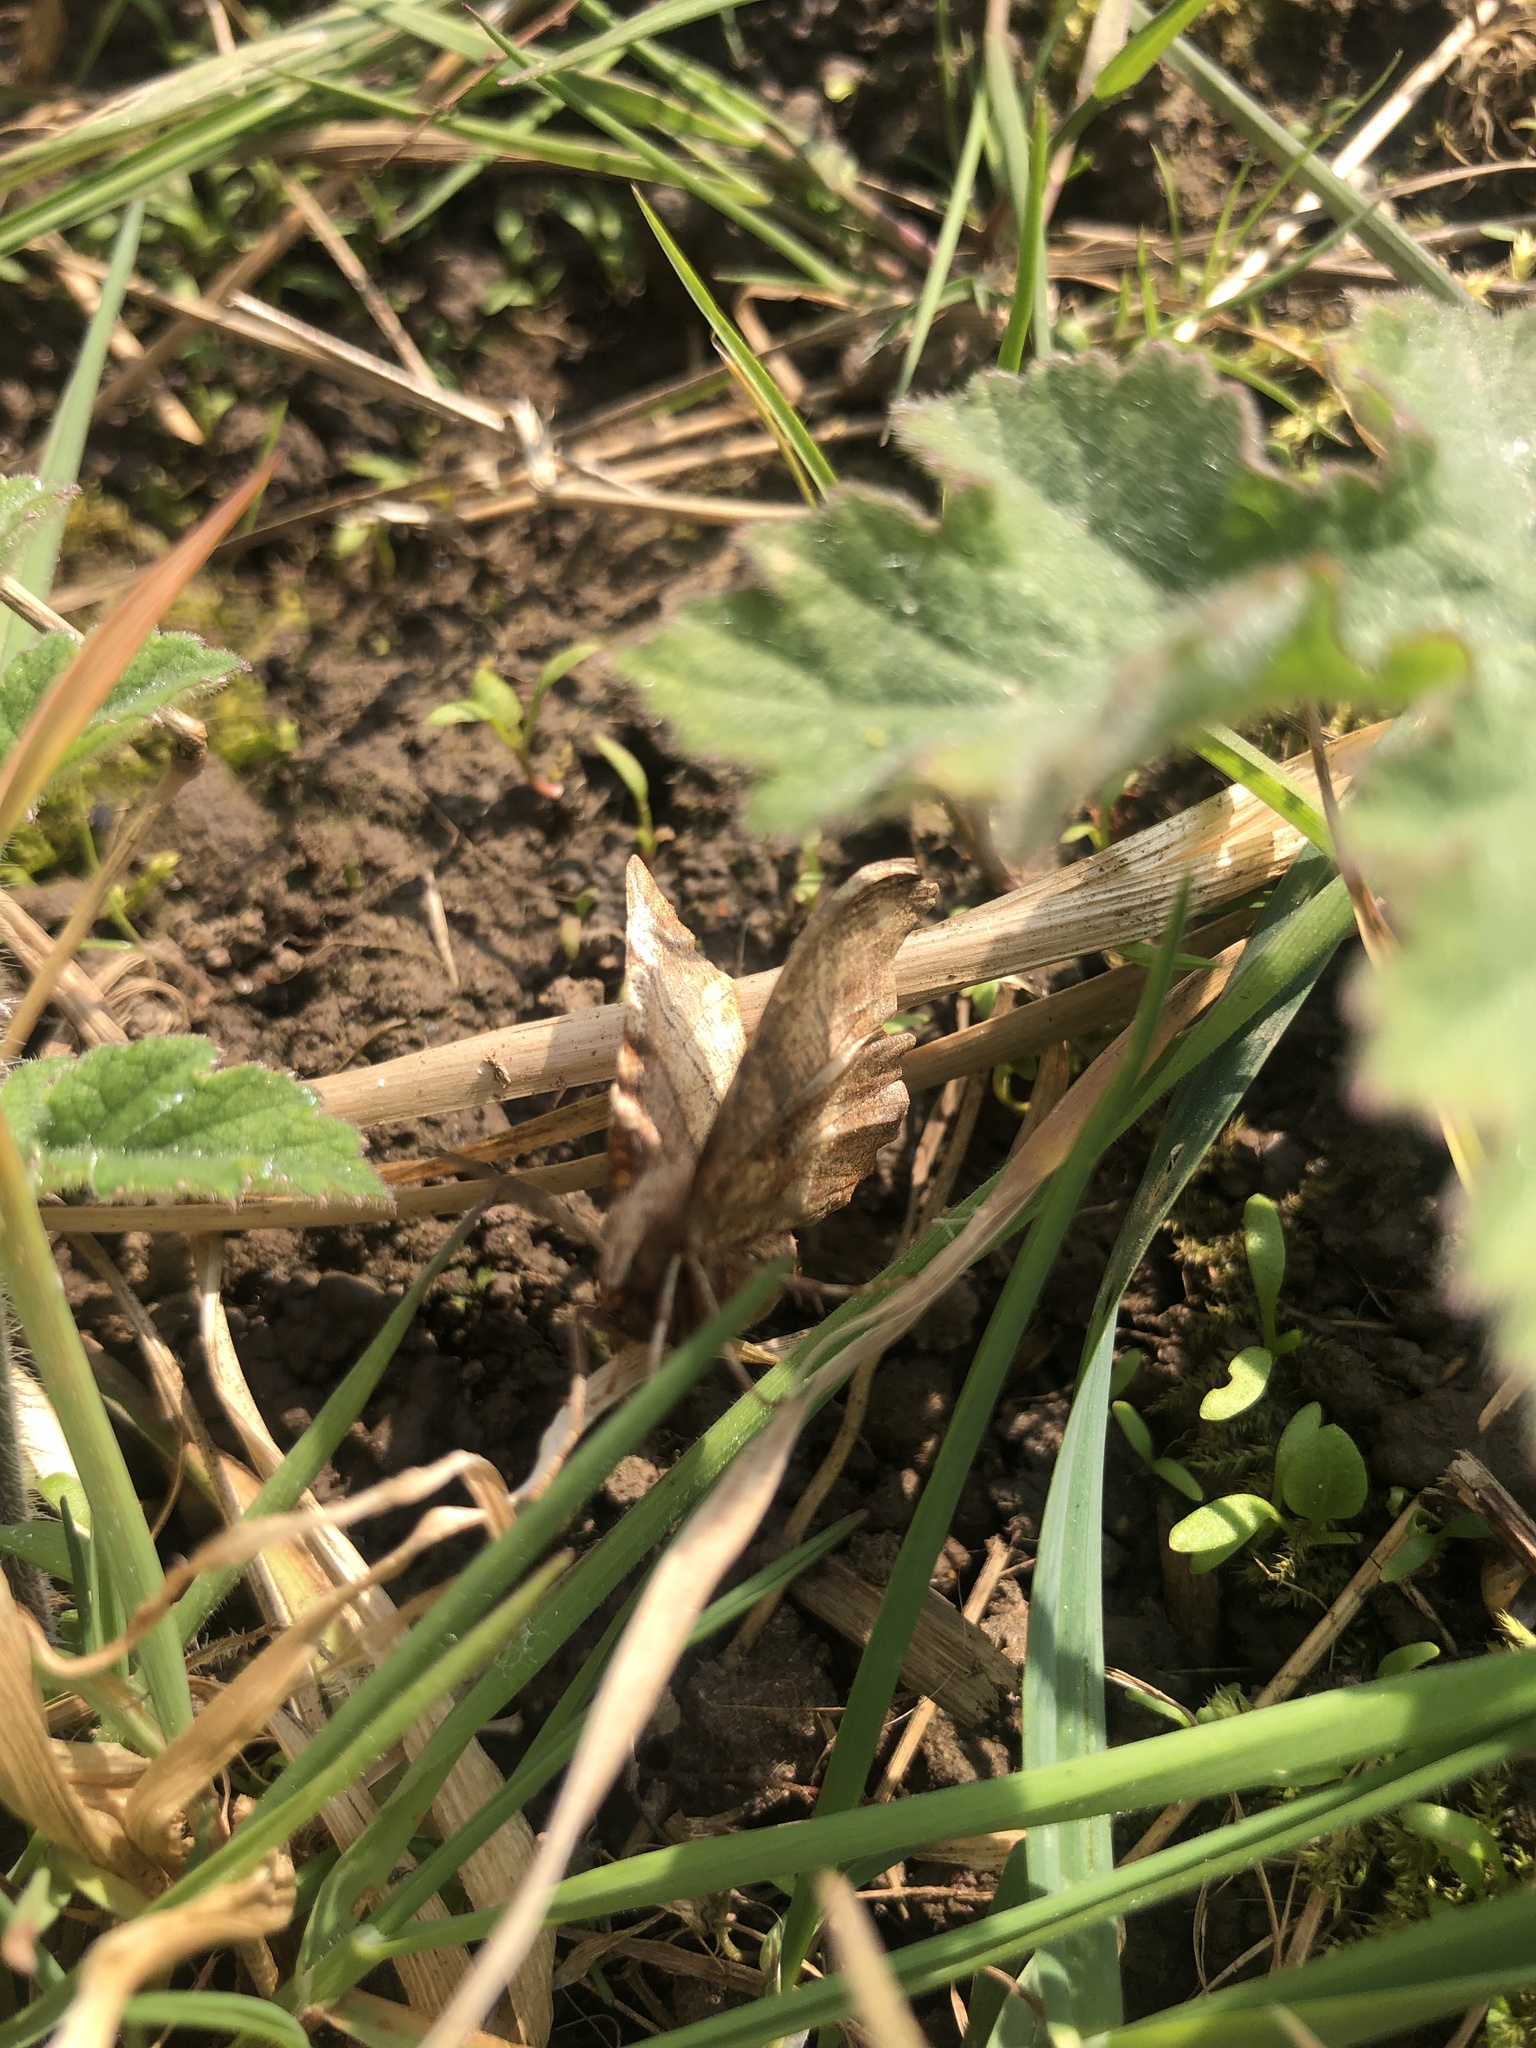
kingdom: Animalia
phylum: Arthropoda
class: Insecta
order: Lepidoptera
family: Geometridae
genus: Selenia
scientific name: Selenia dentaria
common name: Early thorn
